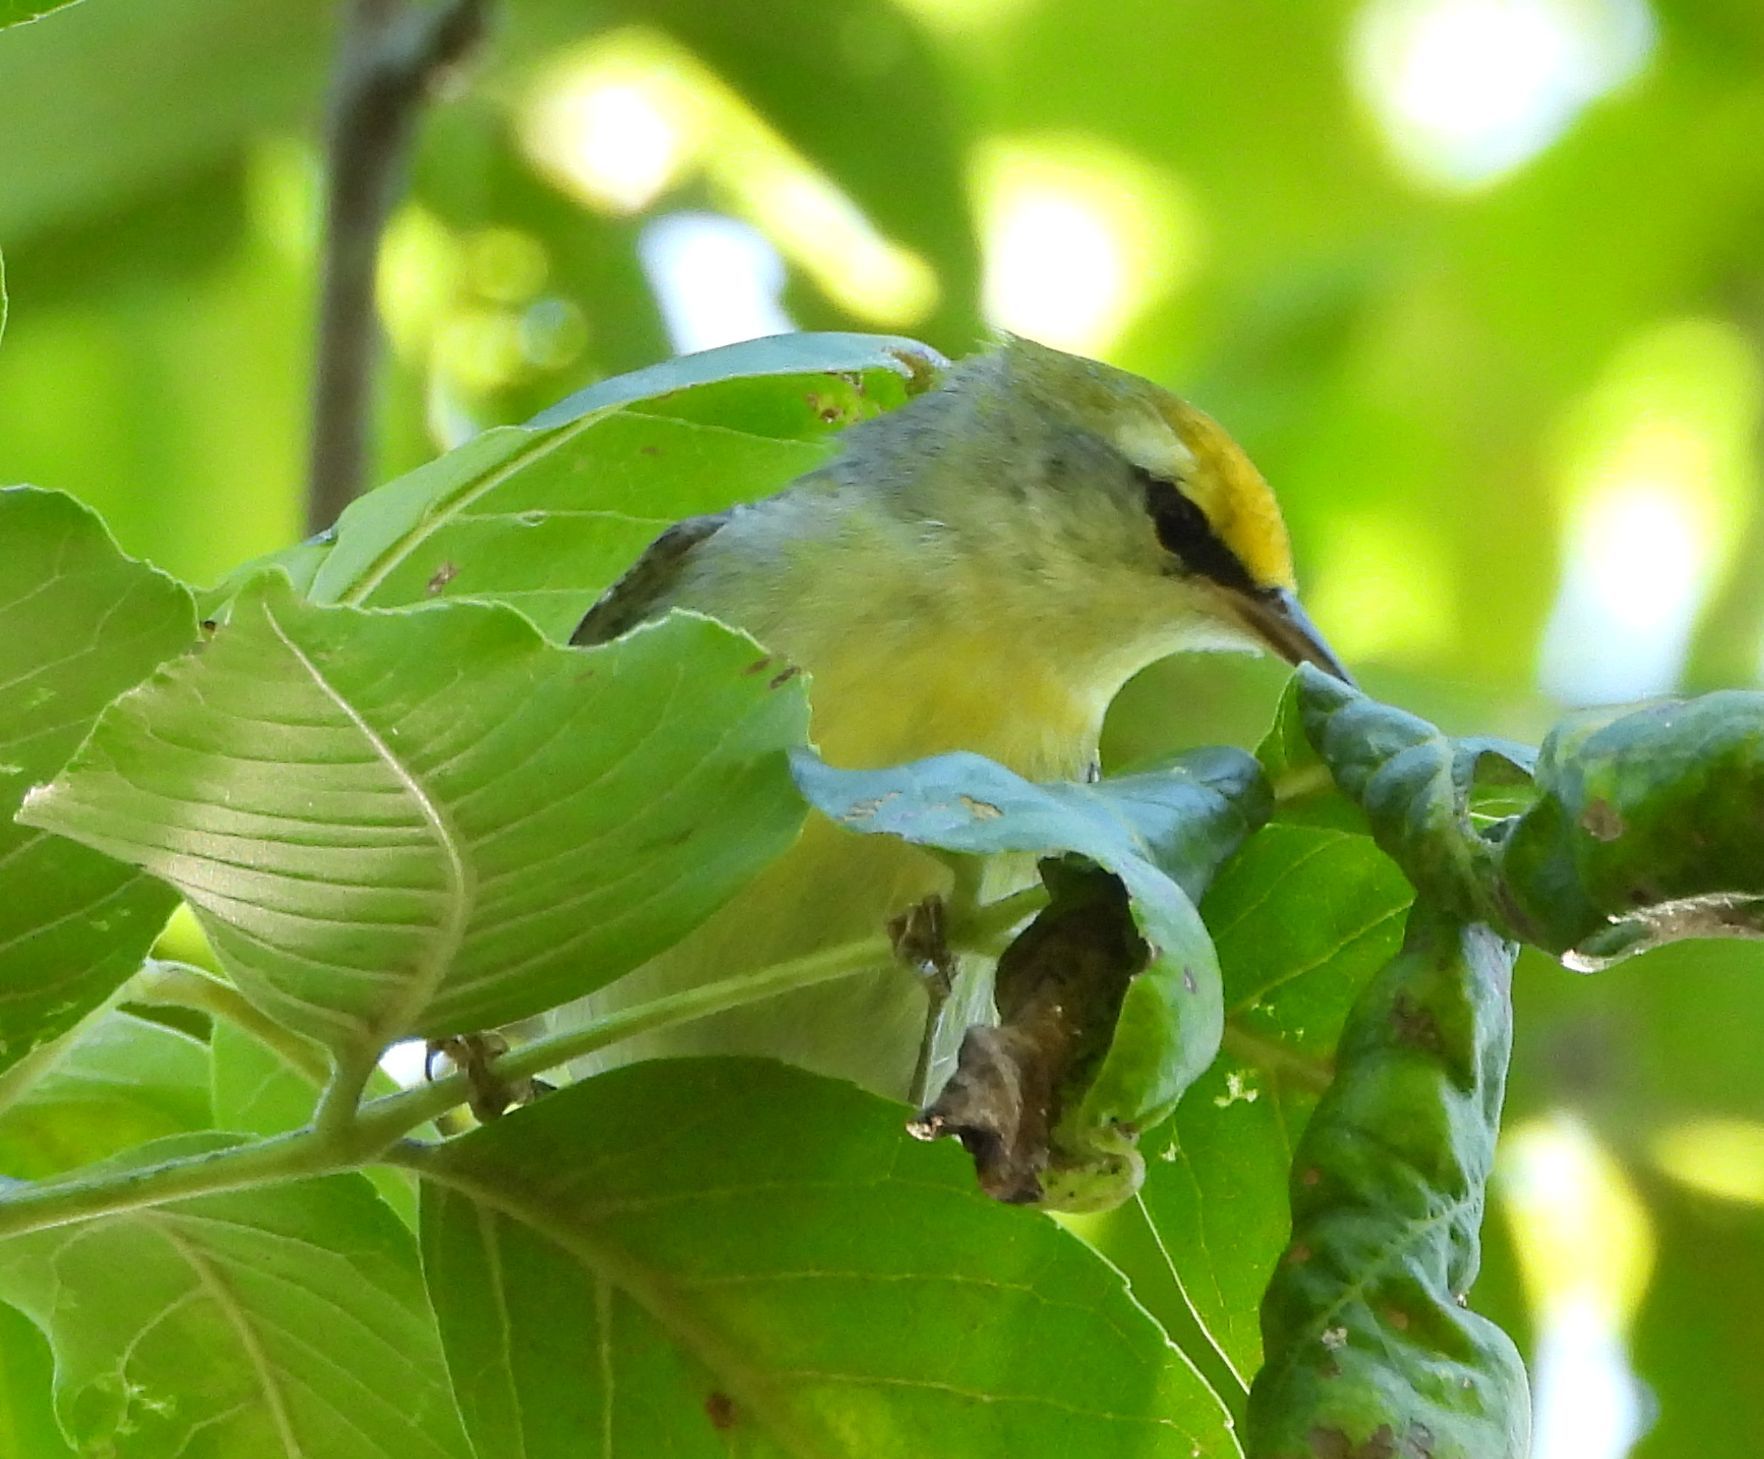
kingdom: Animalia
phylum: Chordata
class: Aves
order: Passeriformes
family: Parulidae
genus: Vermivora
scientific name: Vermivora
